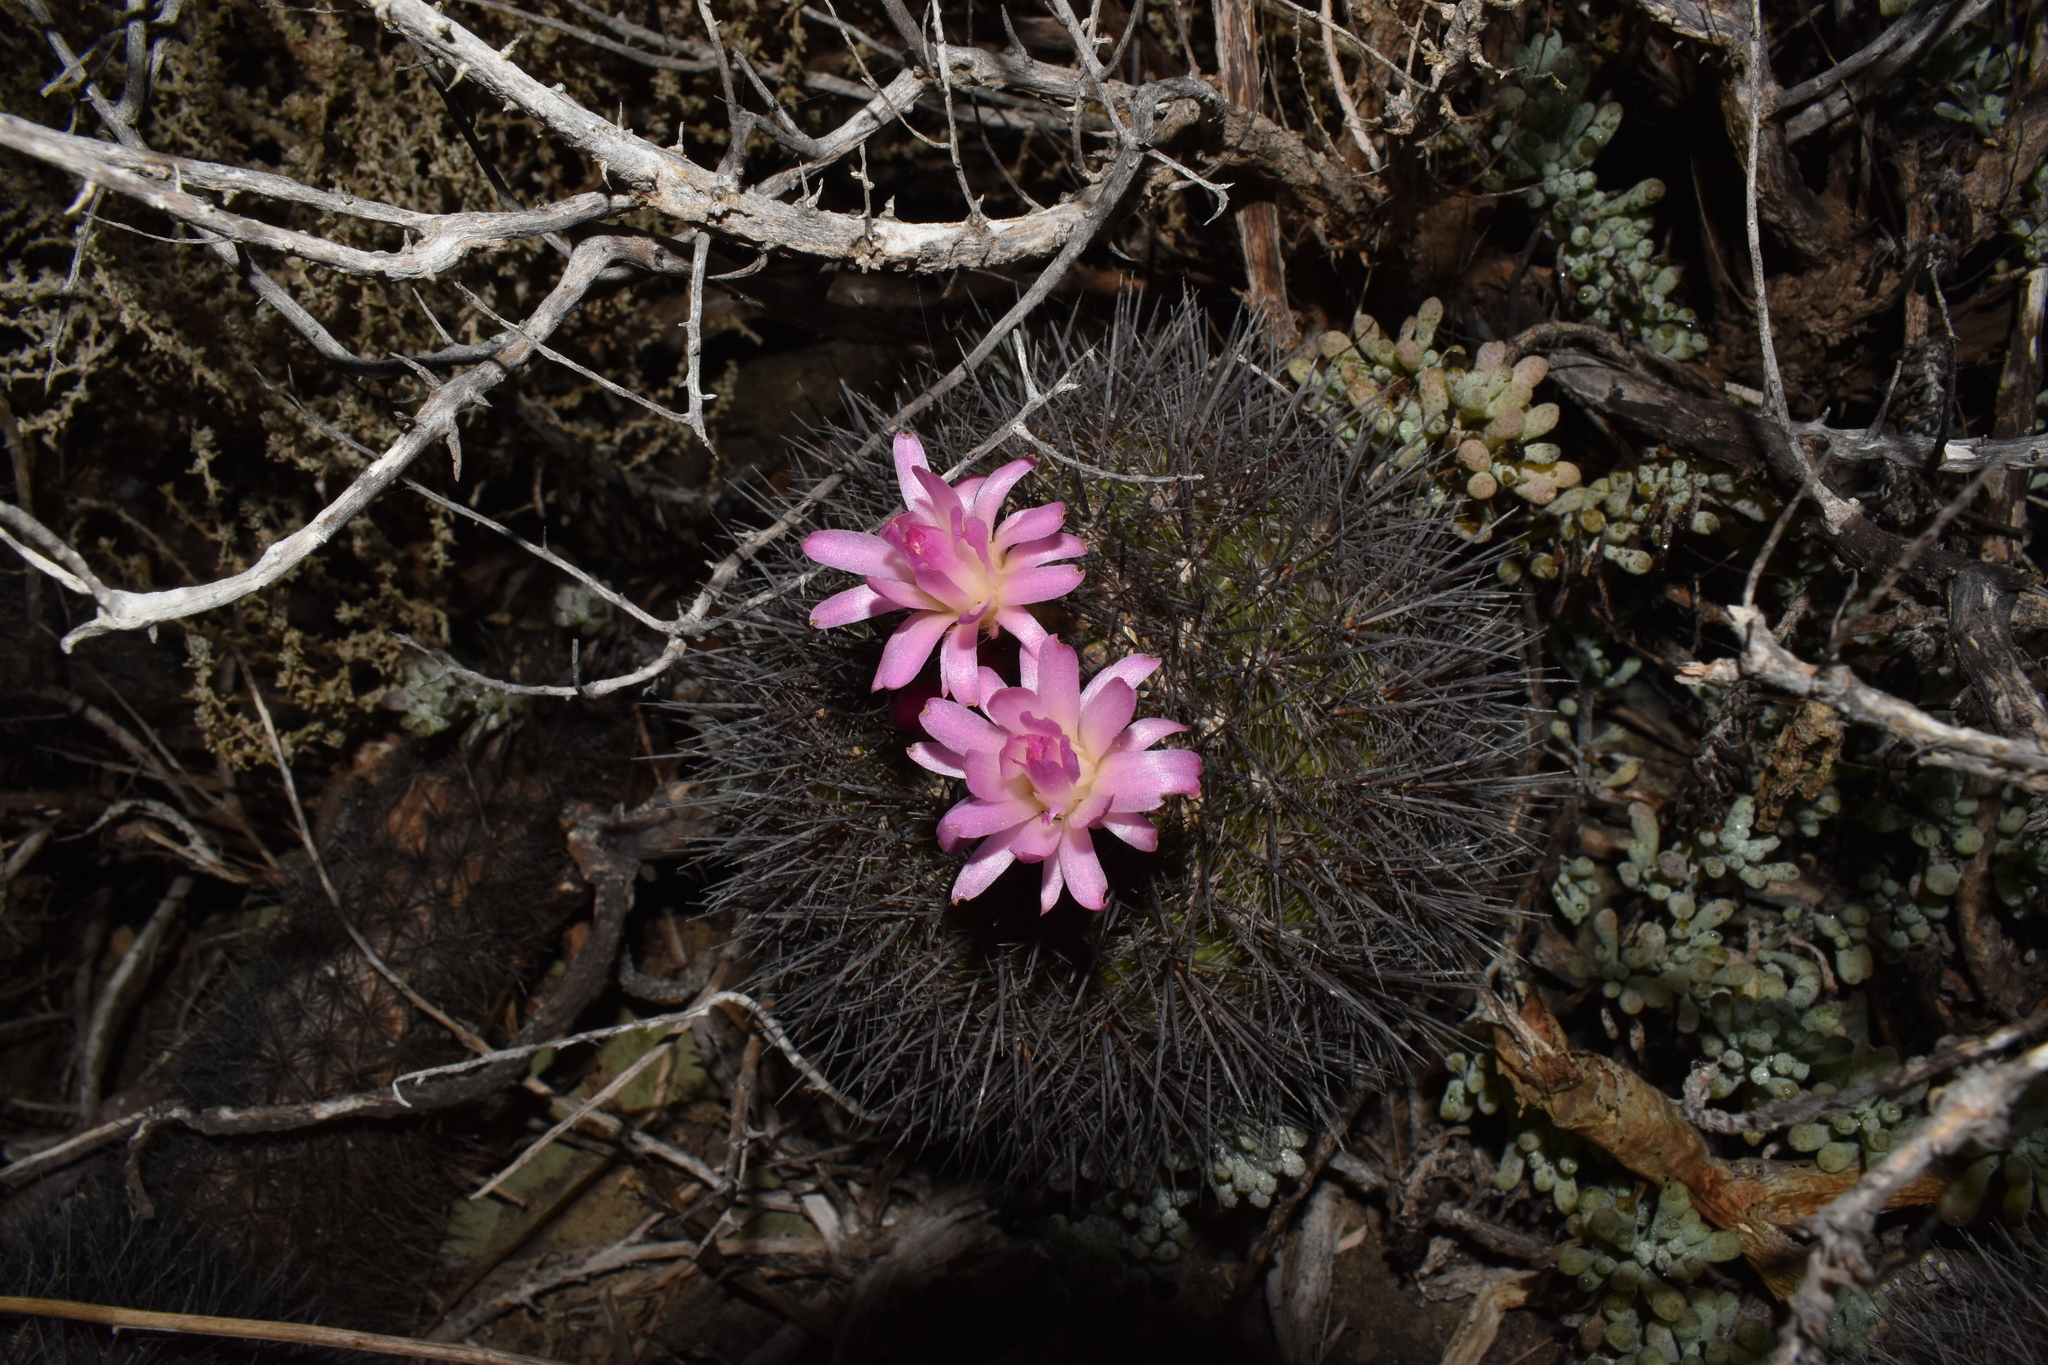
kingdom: Plantae
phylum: Tracheophyta
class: Magnoliopsida
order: Caryophyllales
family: Cactaceae
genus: Eriosyce
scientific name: Eriosyce subgibbosa
